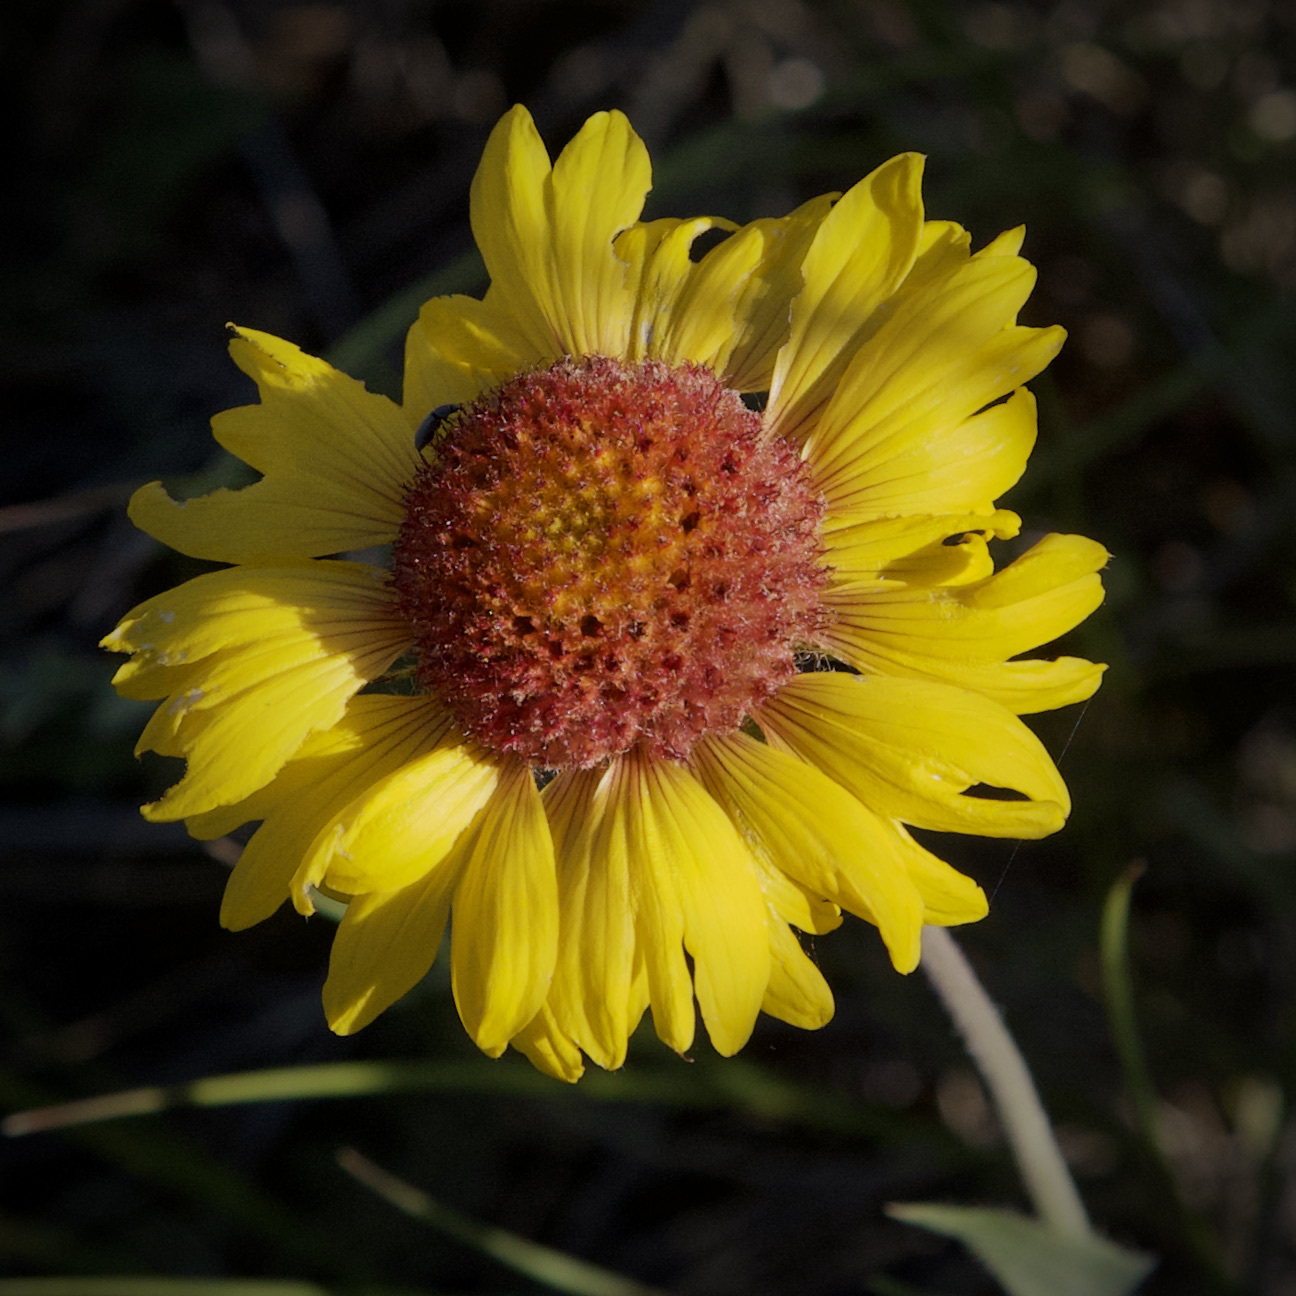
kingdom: Plantae
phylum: Tracheophyta
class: Magnoliopsida
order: Asterales
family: Asteraceae
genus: Gaillardia
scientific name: Gaillardia aristata
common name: Blanket-flower
